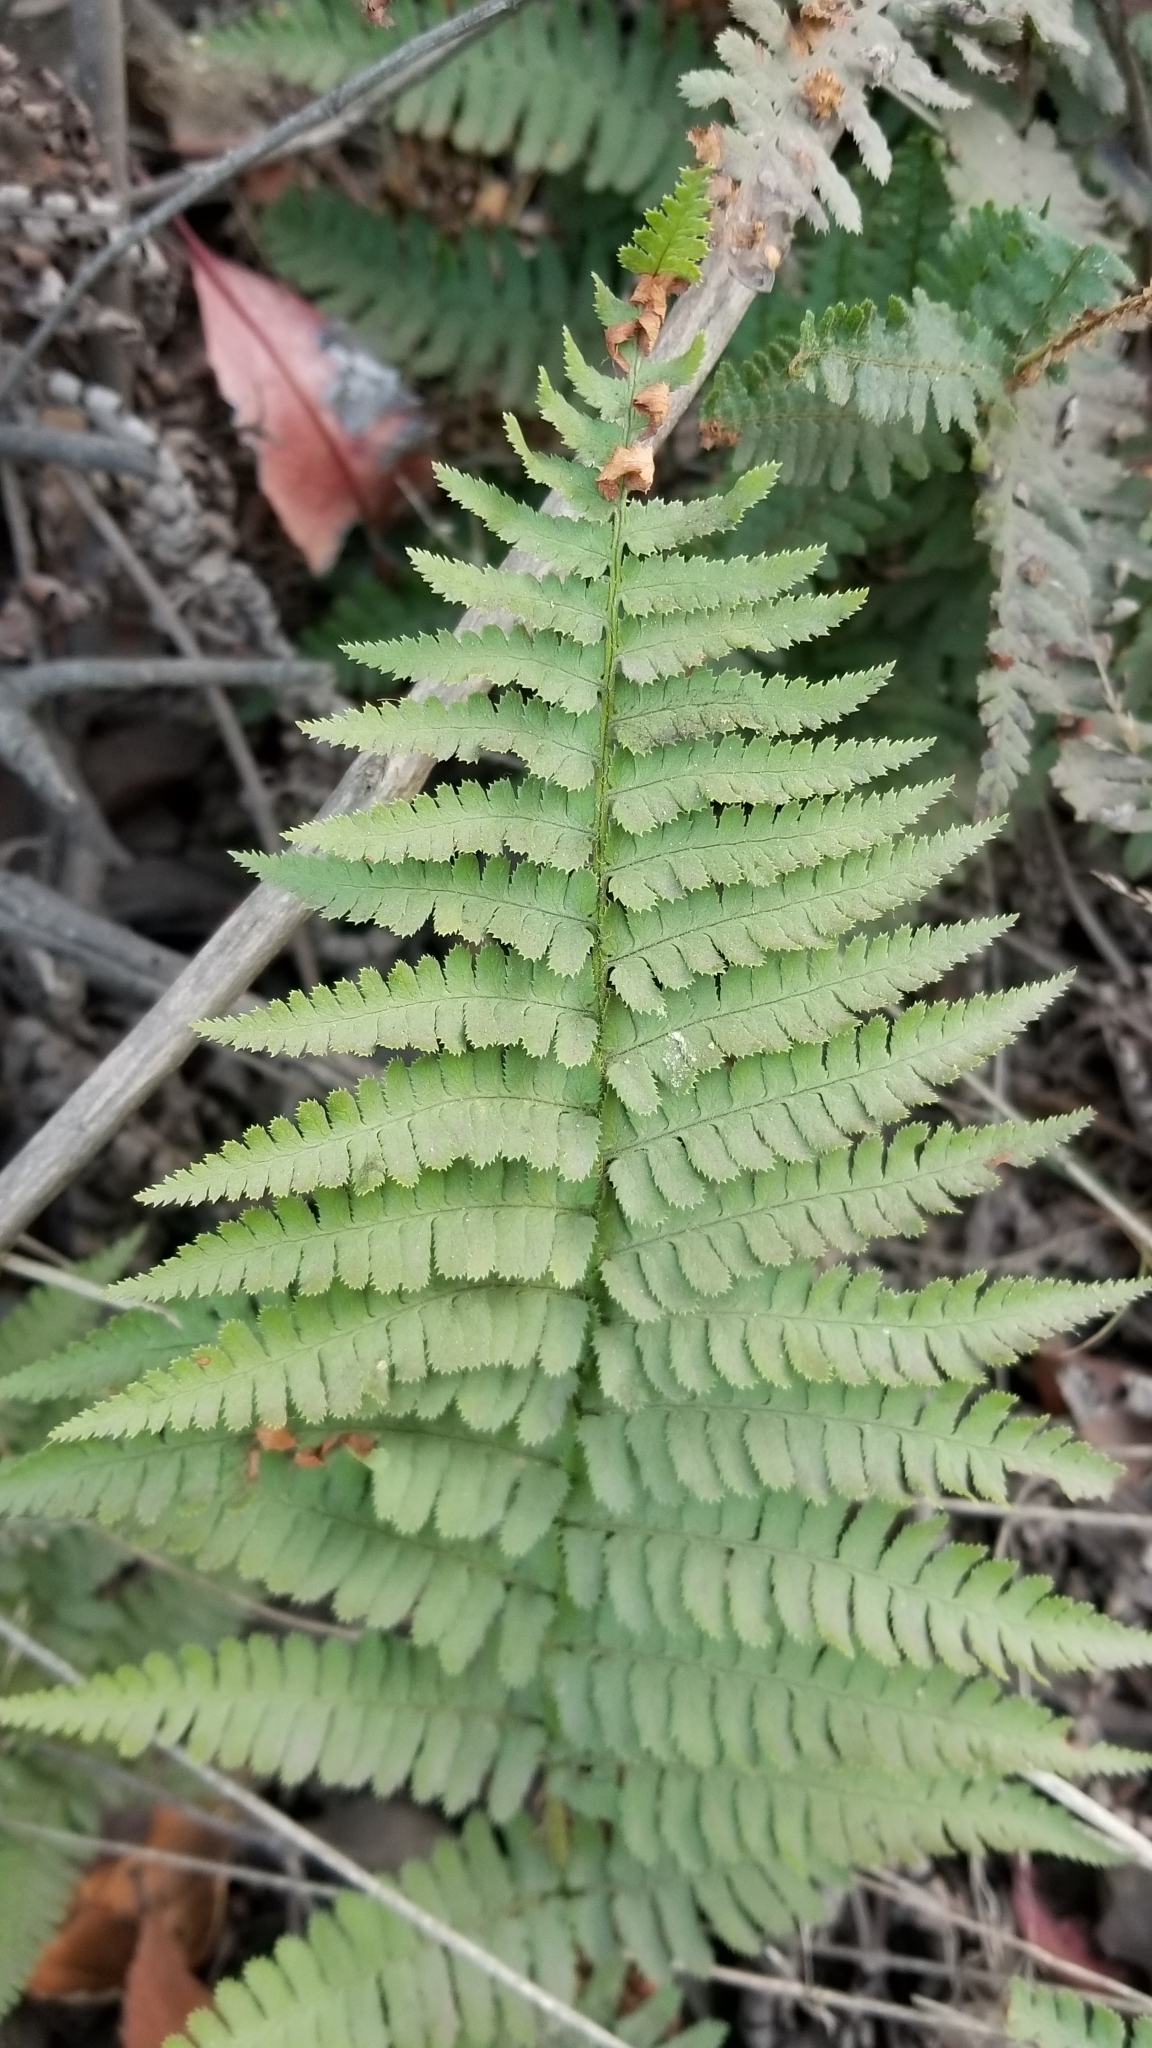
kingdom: Plantae
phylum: Tracheophyta
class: Polypodiopsida
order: Polypodiales
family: Dryopteridaceae
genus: Dryopteris
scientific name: Dryopteris arguta
